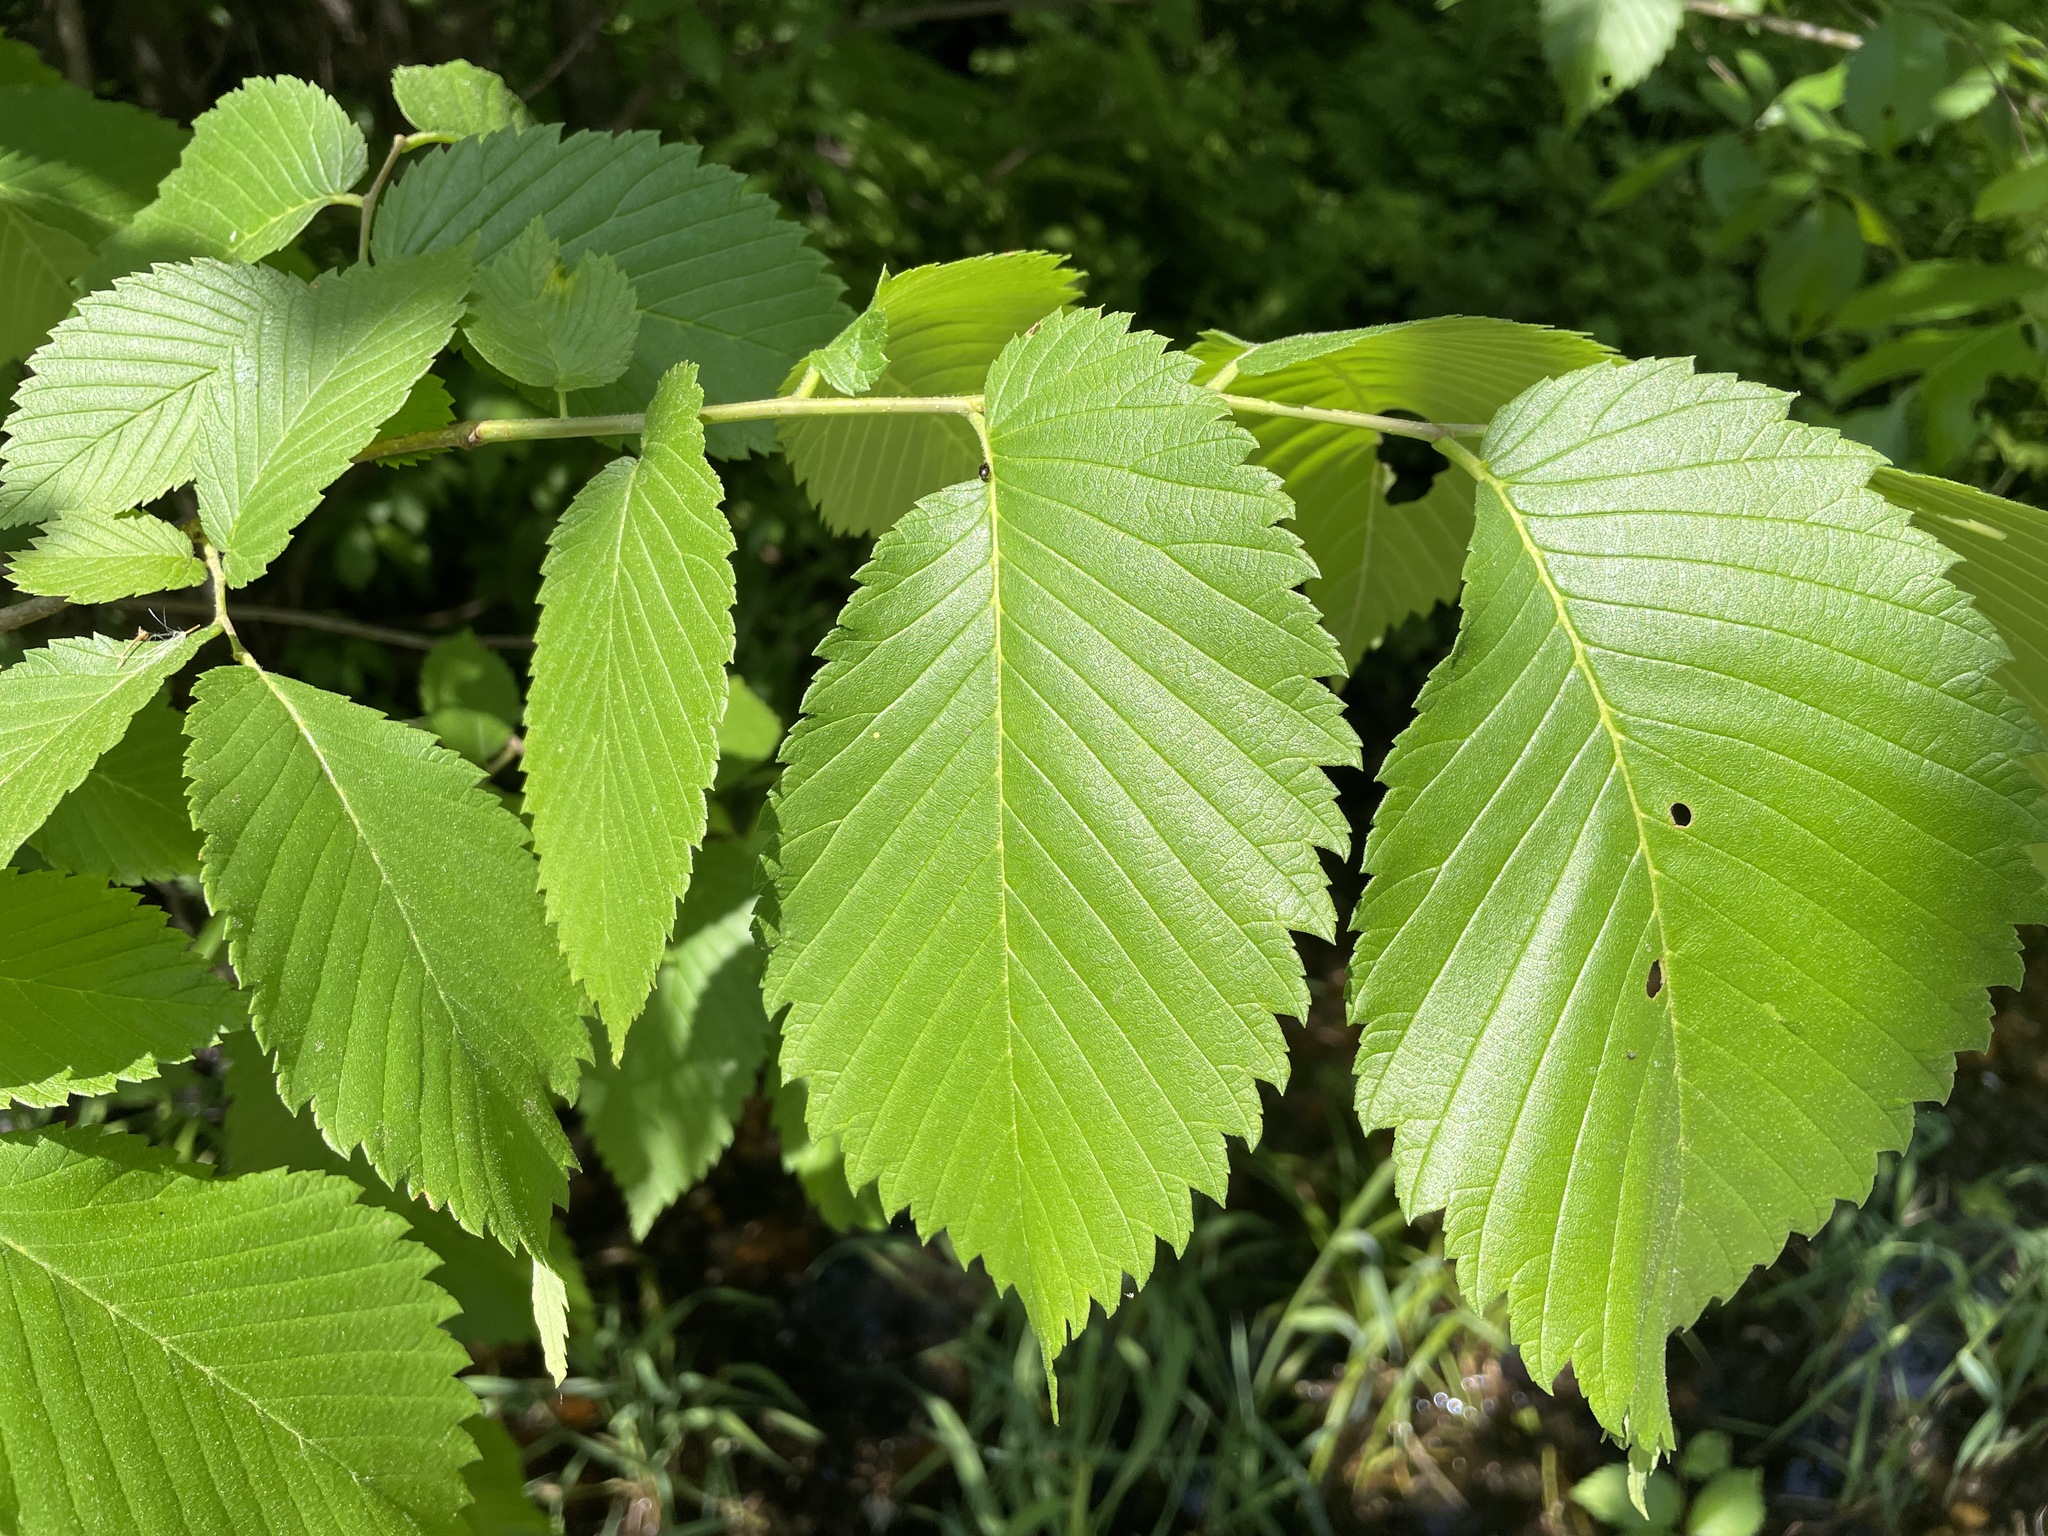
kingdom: Plantae
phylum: Tracheophyta
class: Magnoliopsida
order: Rosales
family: Ulmaceae
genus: Ulmus
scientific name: Ulmus americana
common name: American elm
